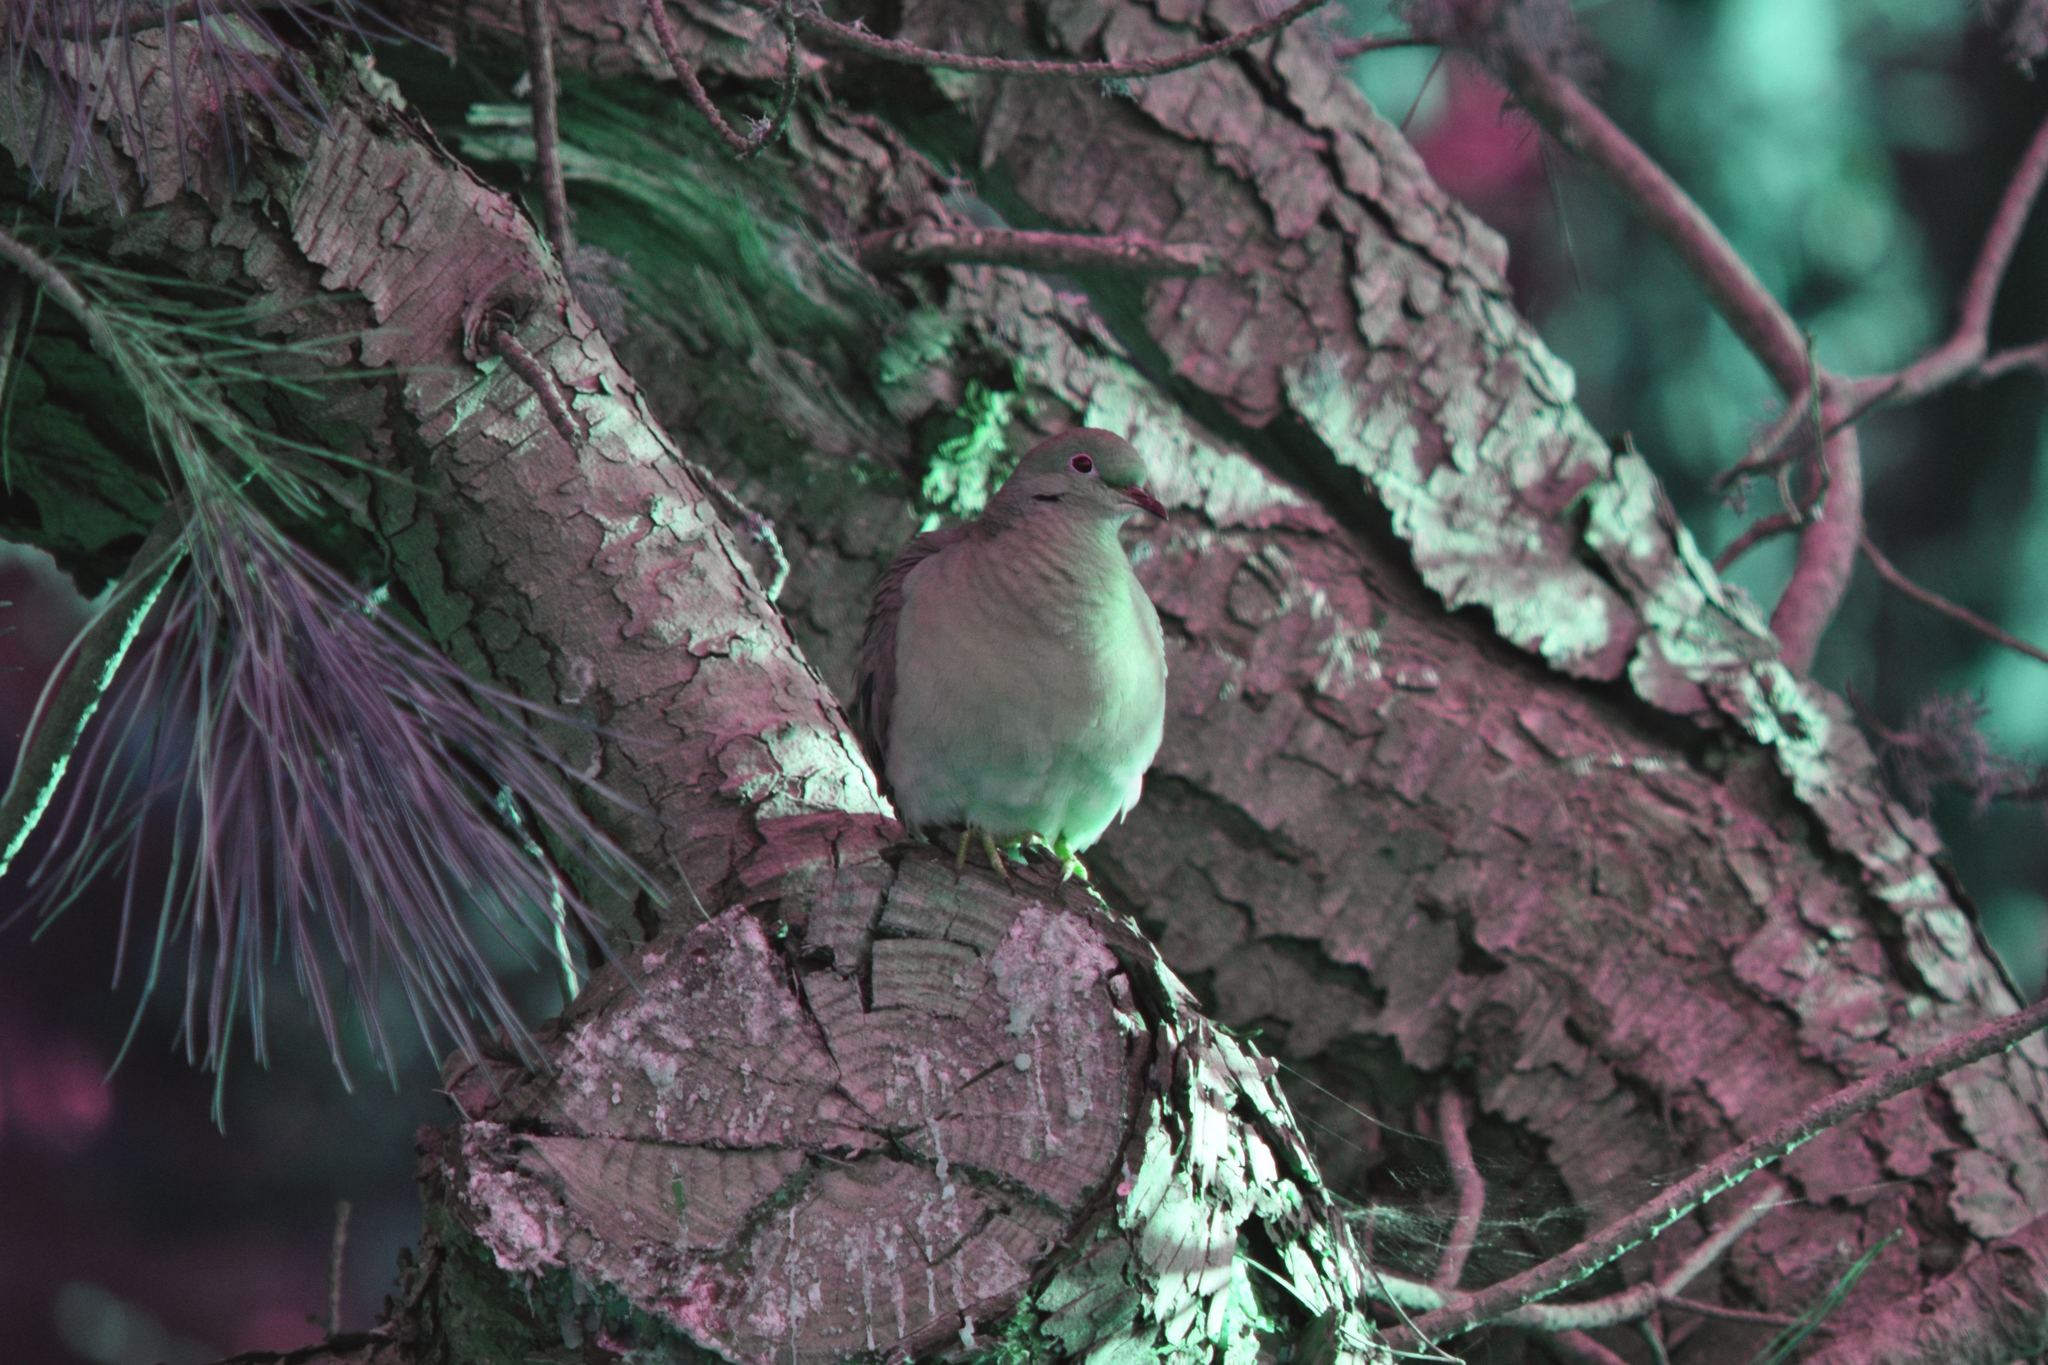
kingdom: Animalia
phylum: Chordata
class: Aves
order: Columbiformes
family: Columbidae
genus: Zenaida
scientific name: Zenaida macroura
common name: Mourning dove
